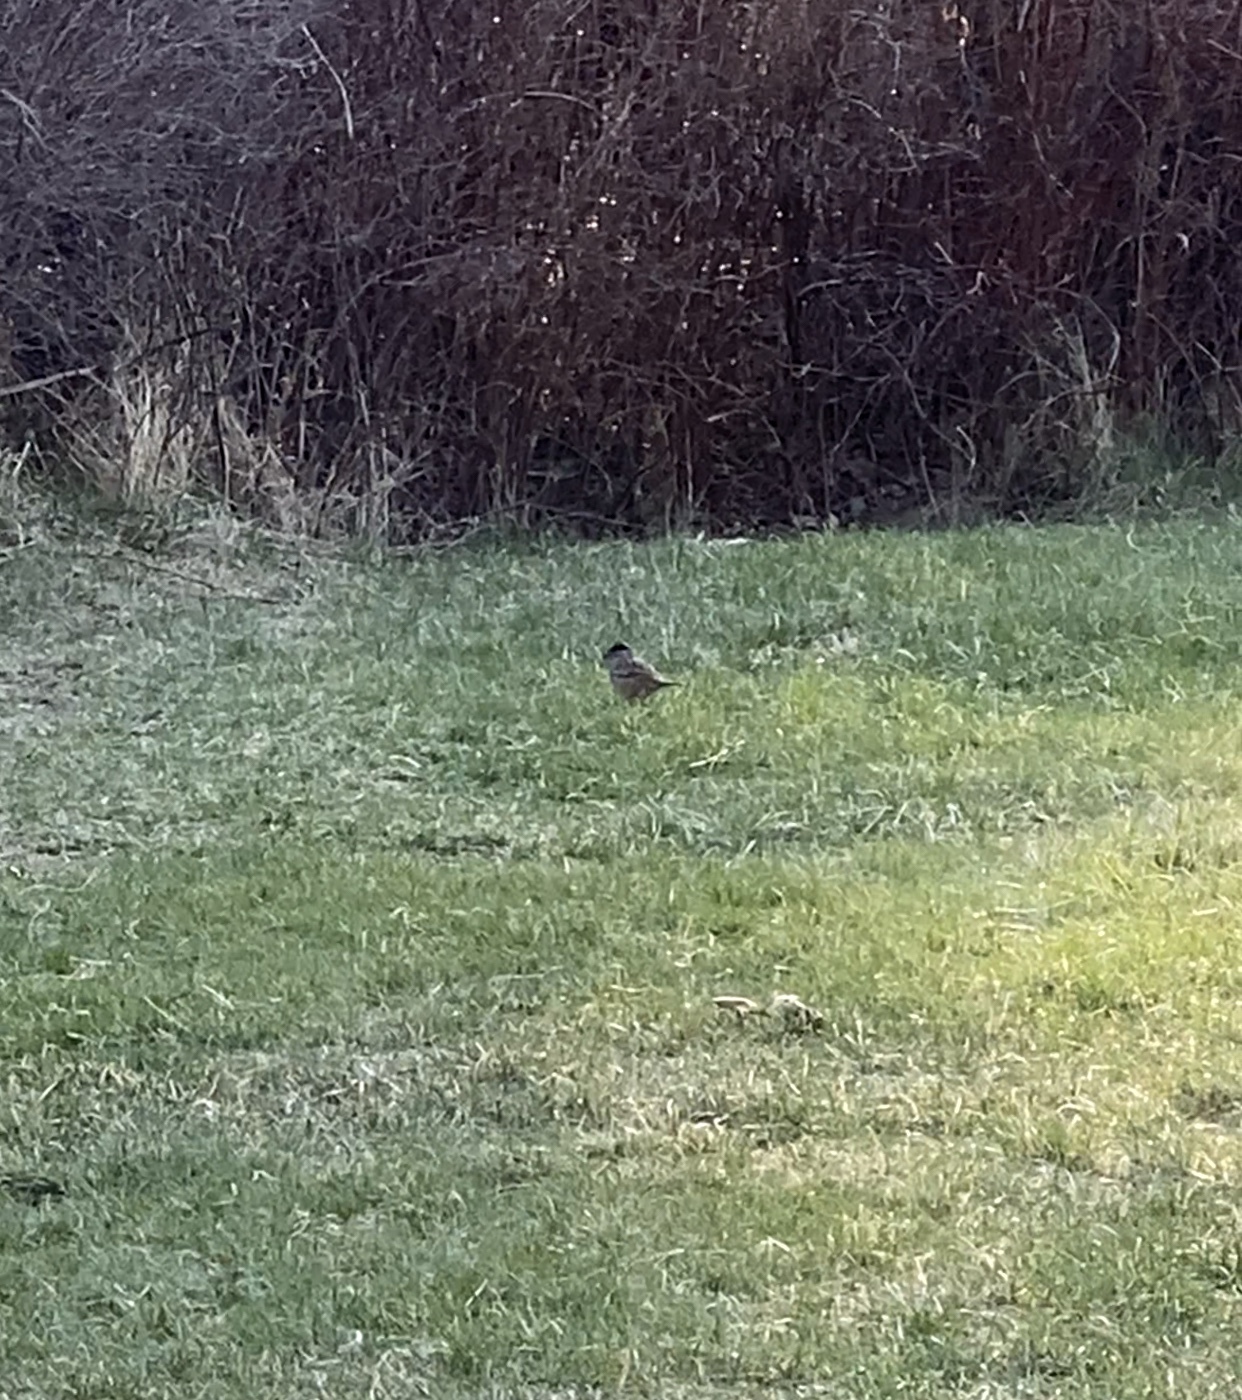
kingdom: Animalia
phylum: Chordata
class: Aves
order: Passeriformes
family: Passerellidae
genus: Zonotrichia
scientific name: Zonotrichia atricapilla
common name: Golden-crowned sparrow
